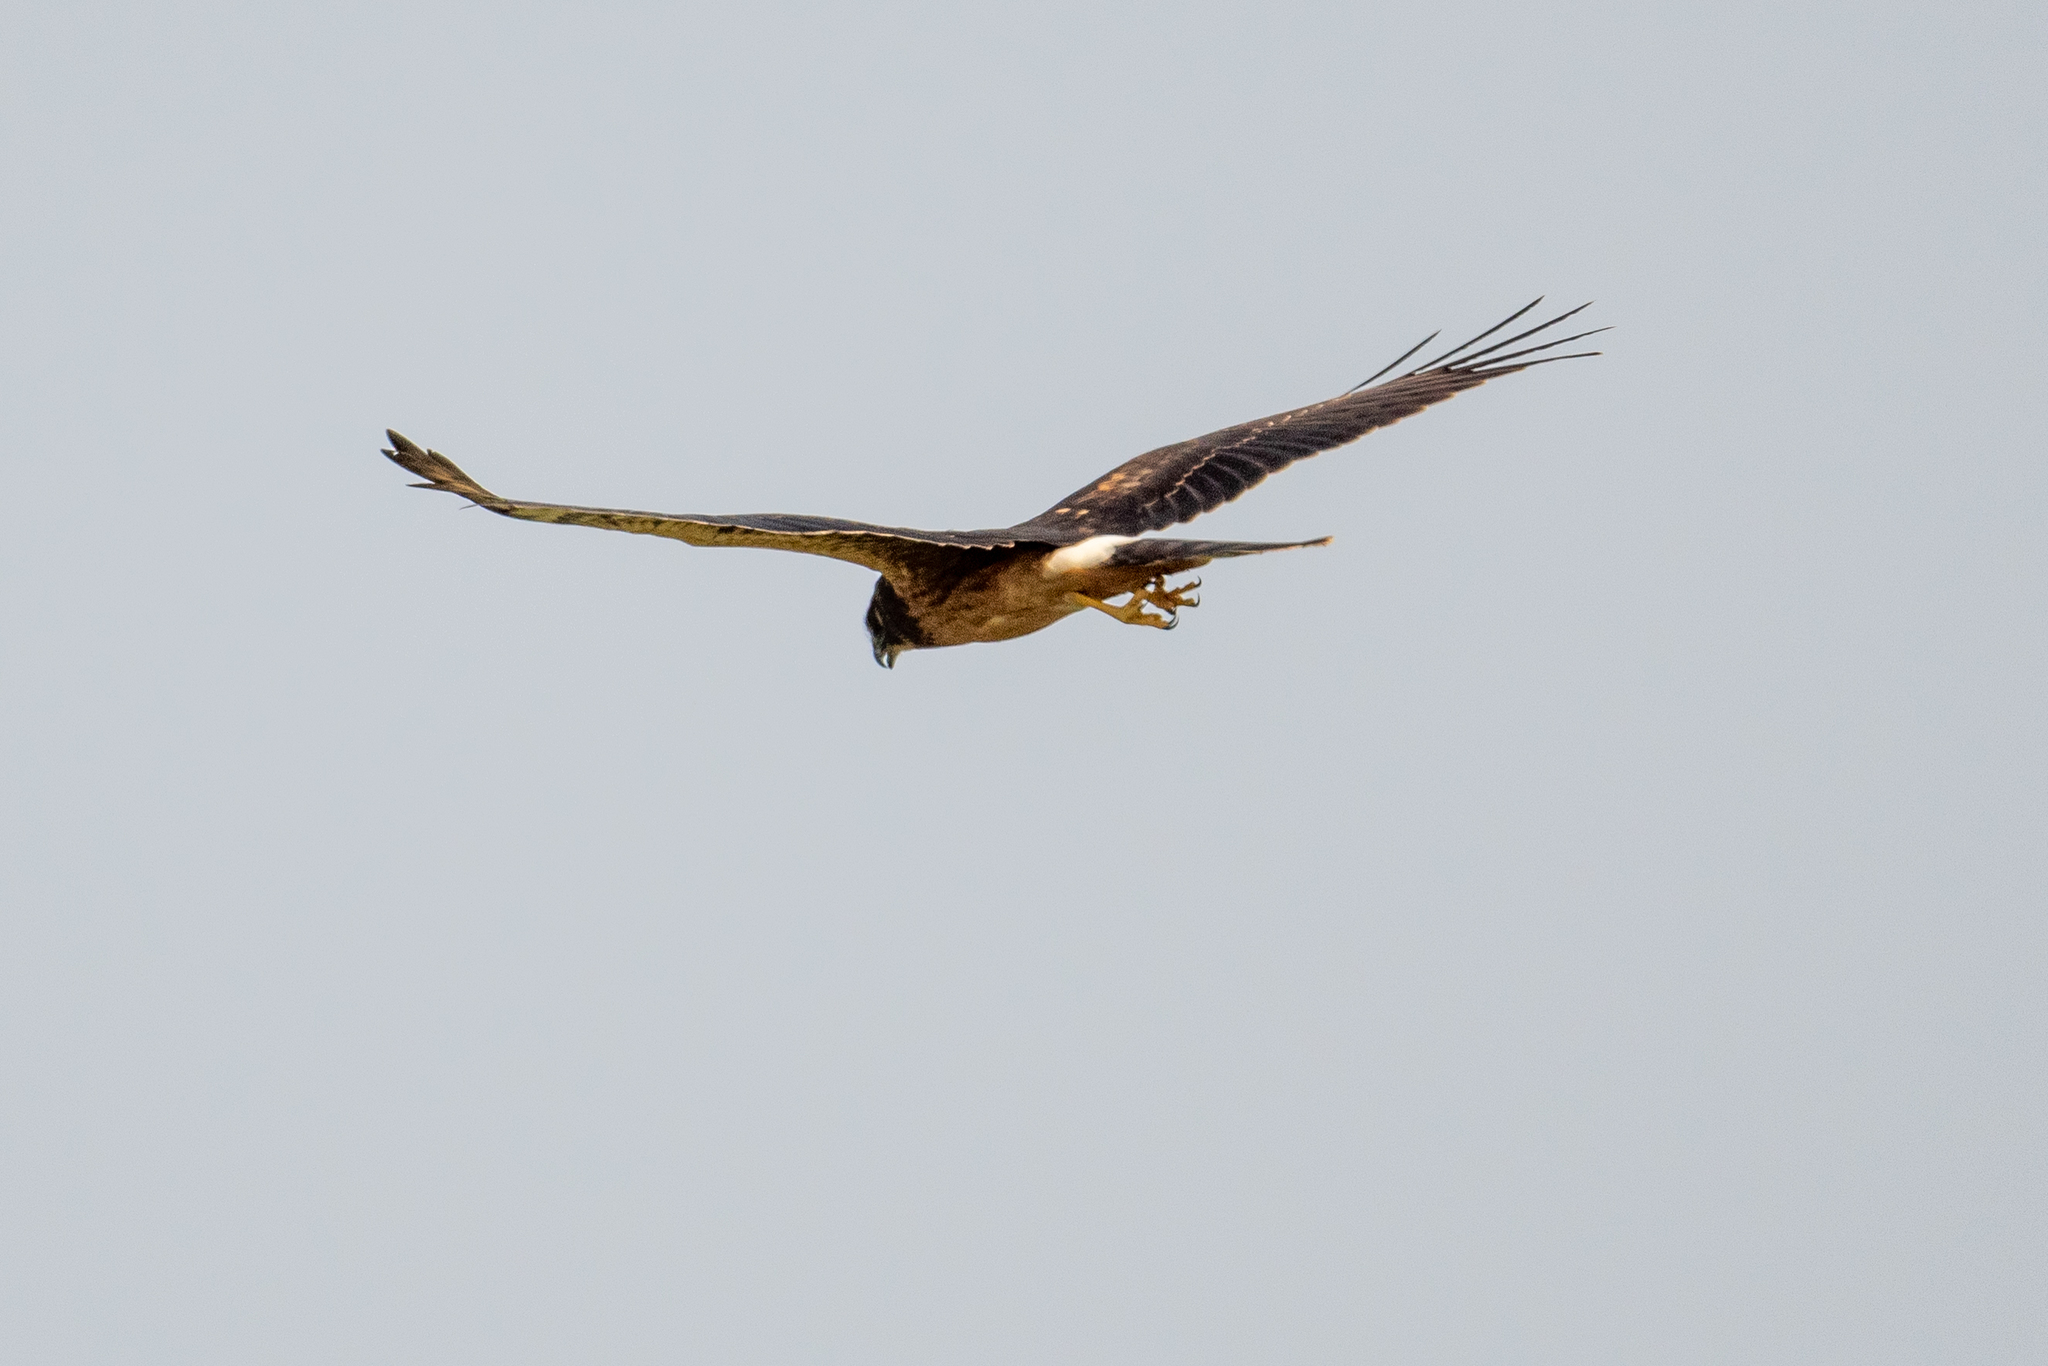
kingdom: Animalia
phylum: Chordata
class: Aves
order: Accipitriformes
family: Accipitridae
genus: Circus
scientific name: Circus cyaneus
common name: Hen harrier
